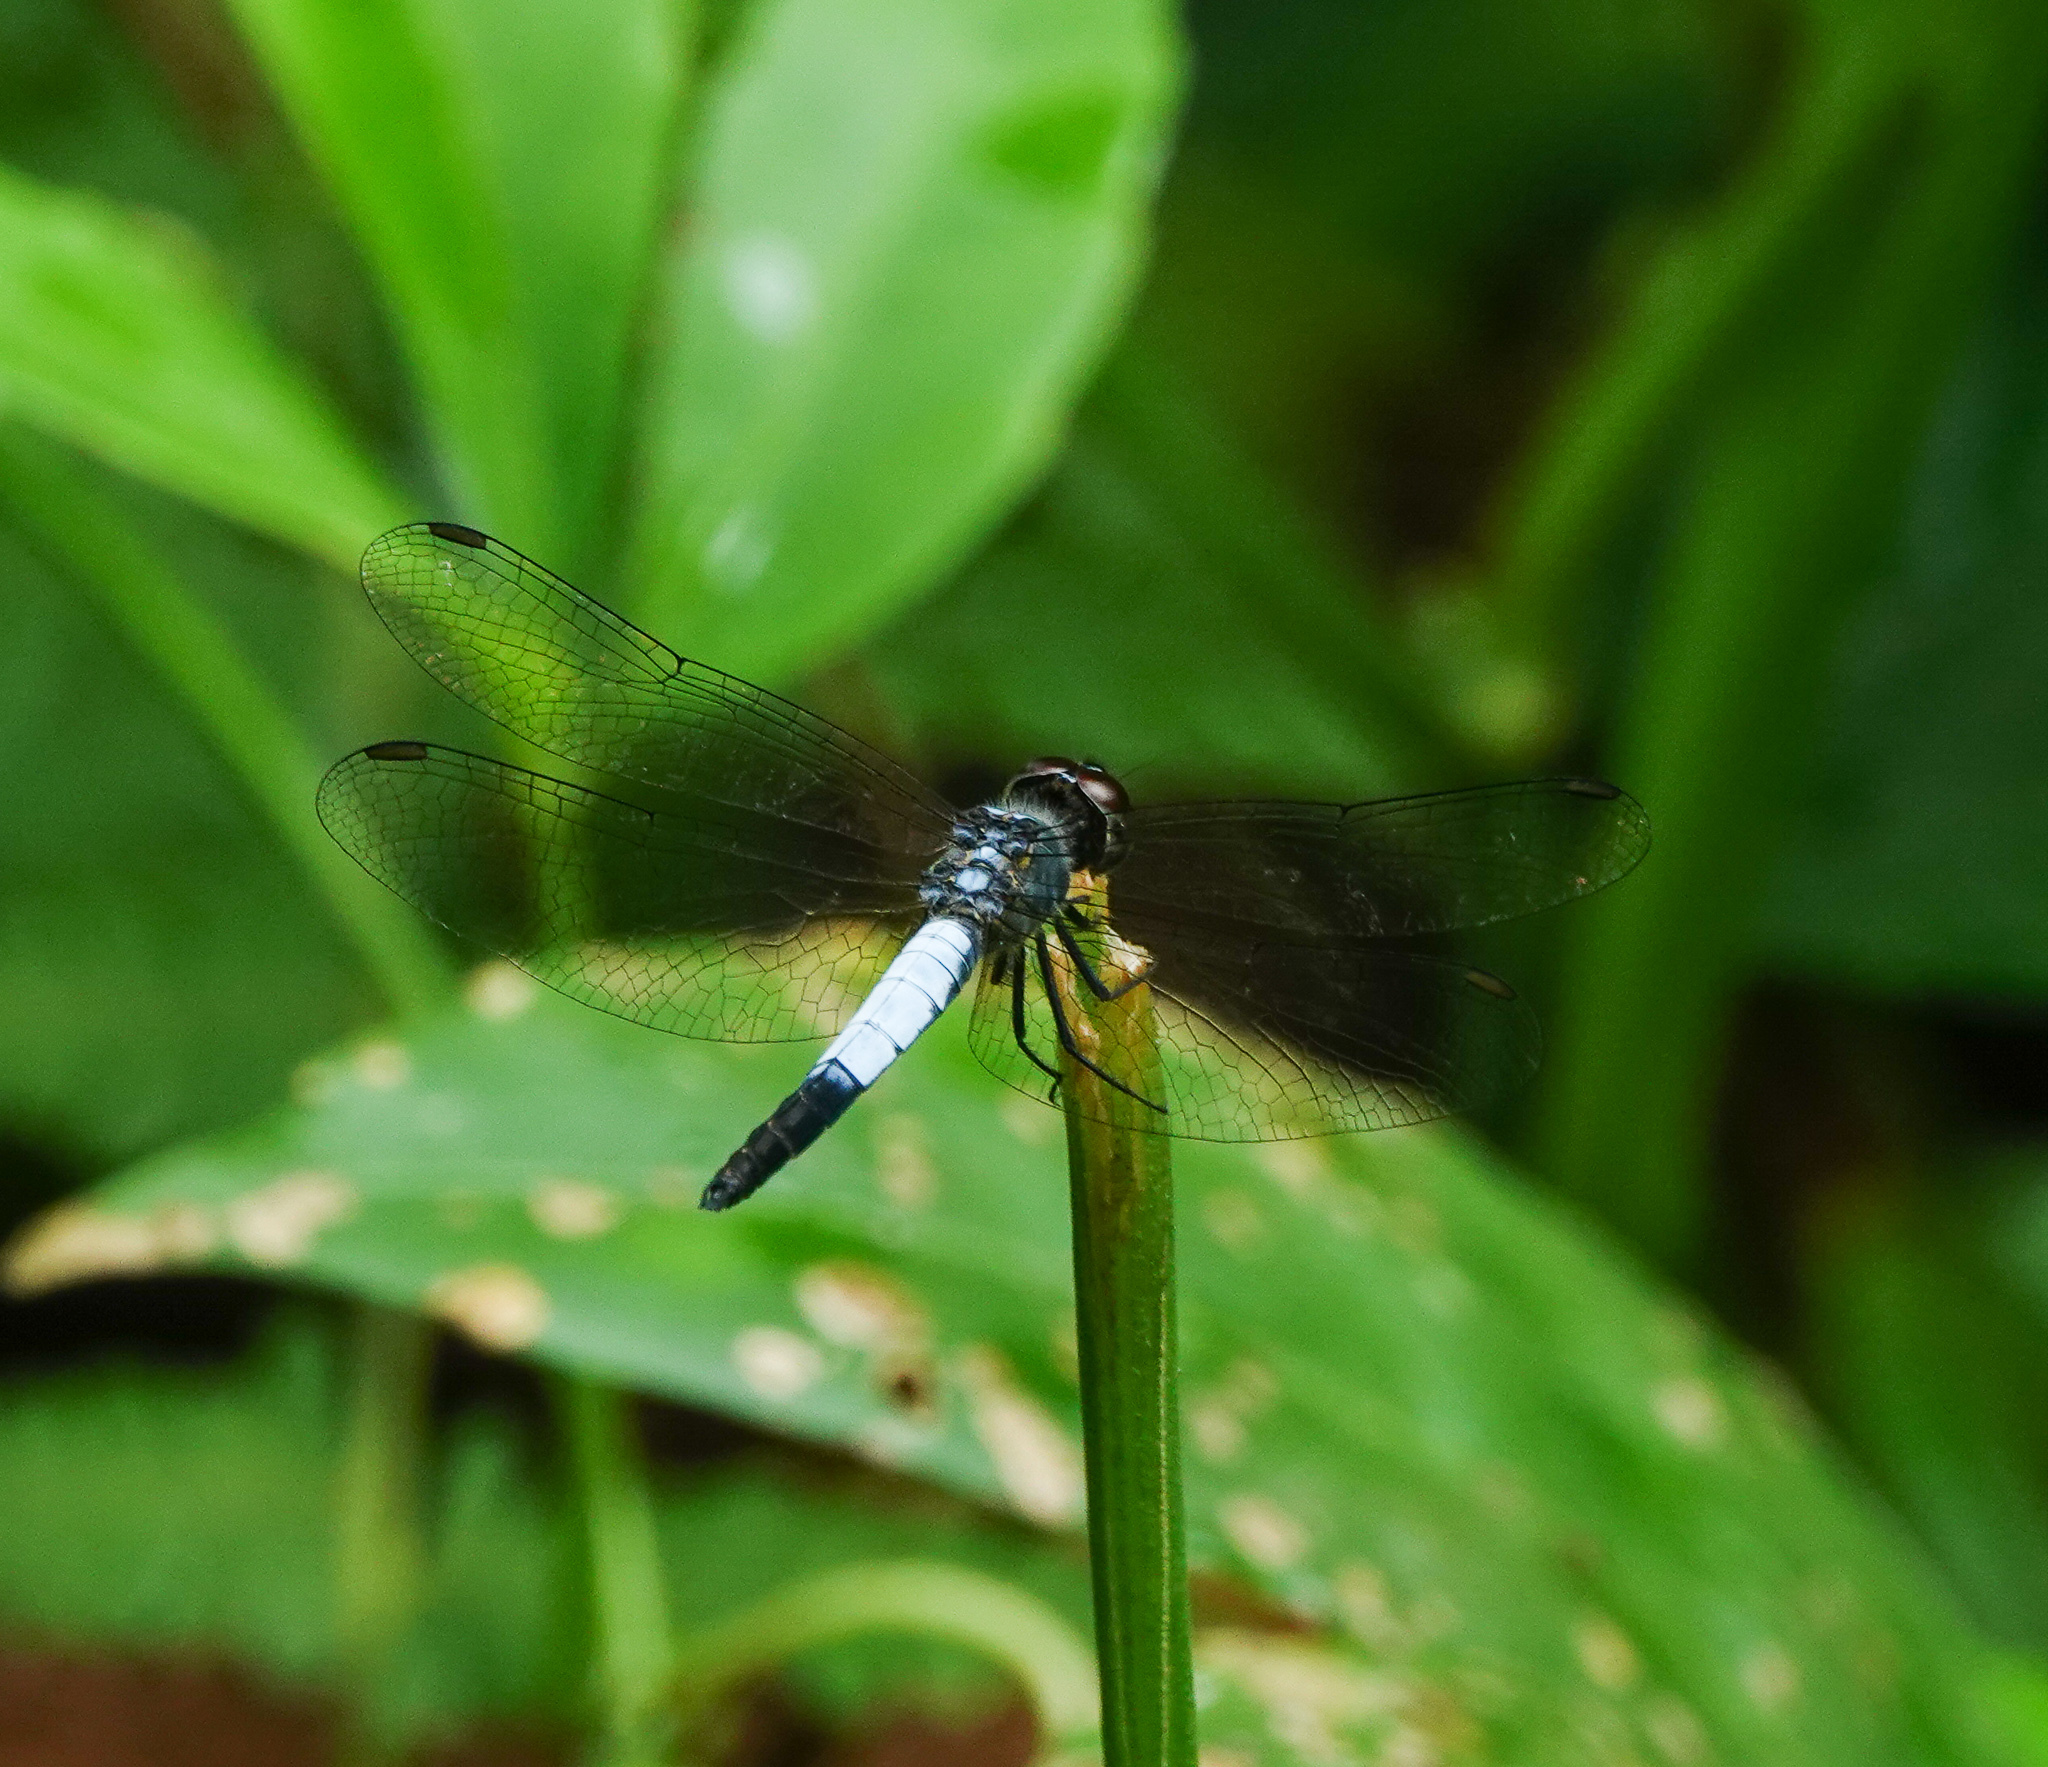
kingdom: Animalia
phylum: Arthropoda
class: Insecta
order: Odonata
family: Libellulidae
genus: Brachydiplax
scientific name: Brachydiplax farinosa
